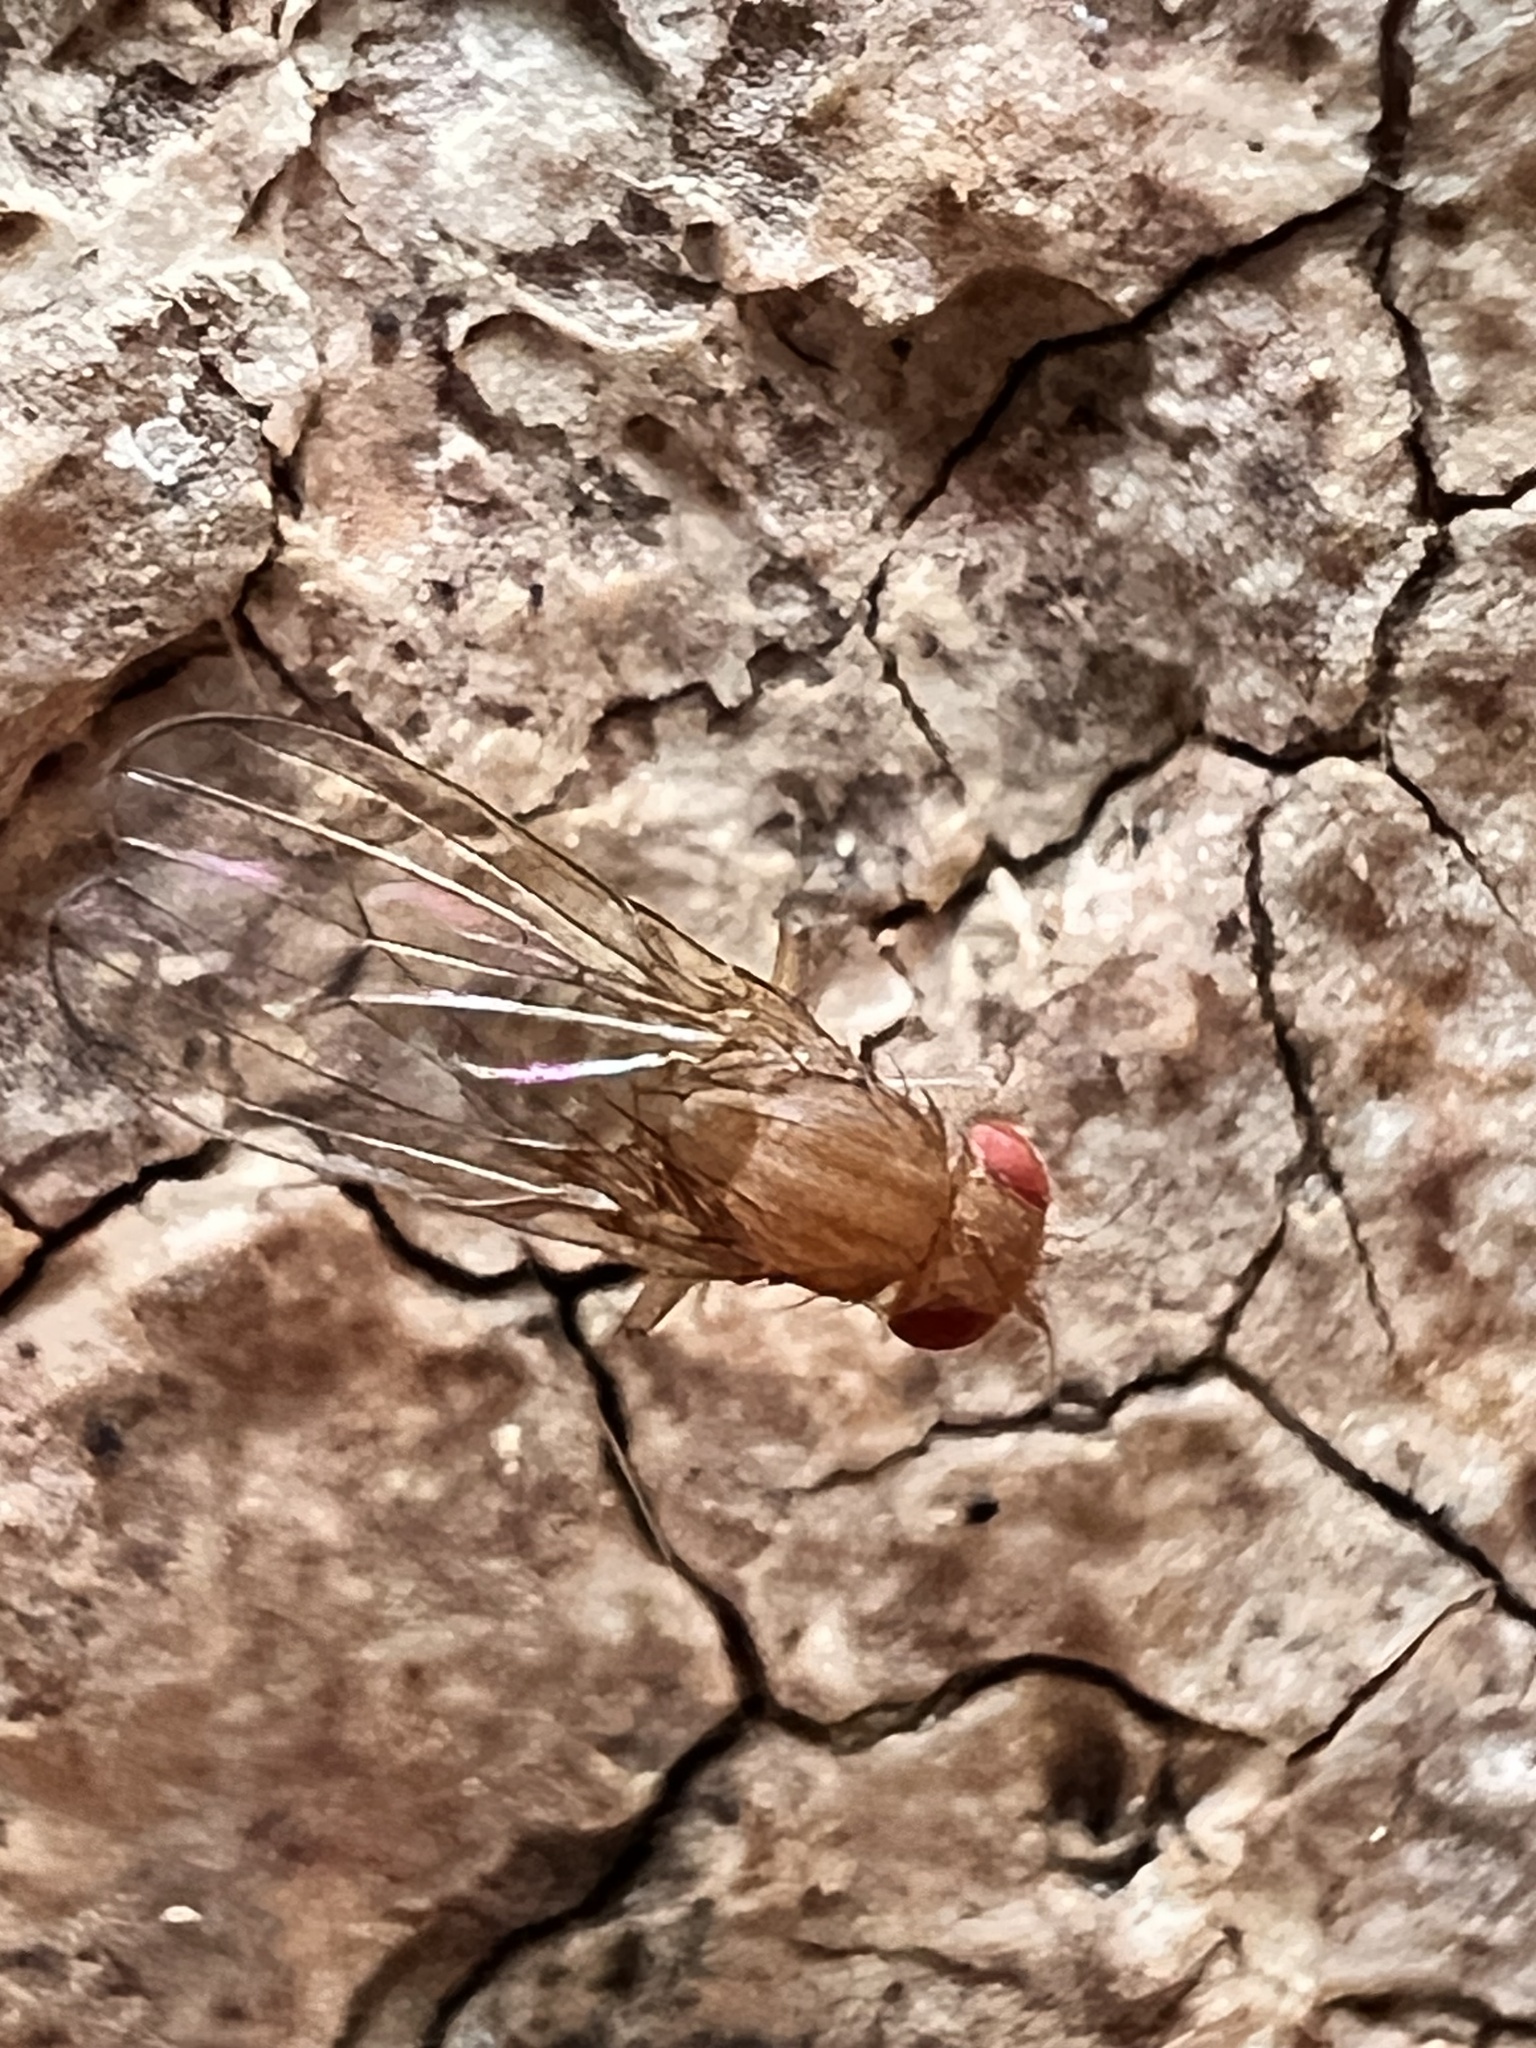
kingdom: Animalia
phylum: Arthropoda
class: Insecta
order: Diptera
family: Drosophilidae
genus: Drosophila
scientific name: Drosophila immigrans
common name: Pomace fly
